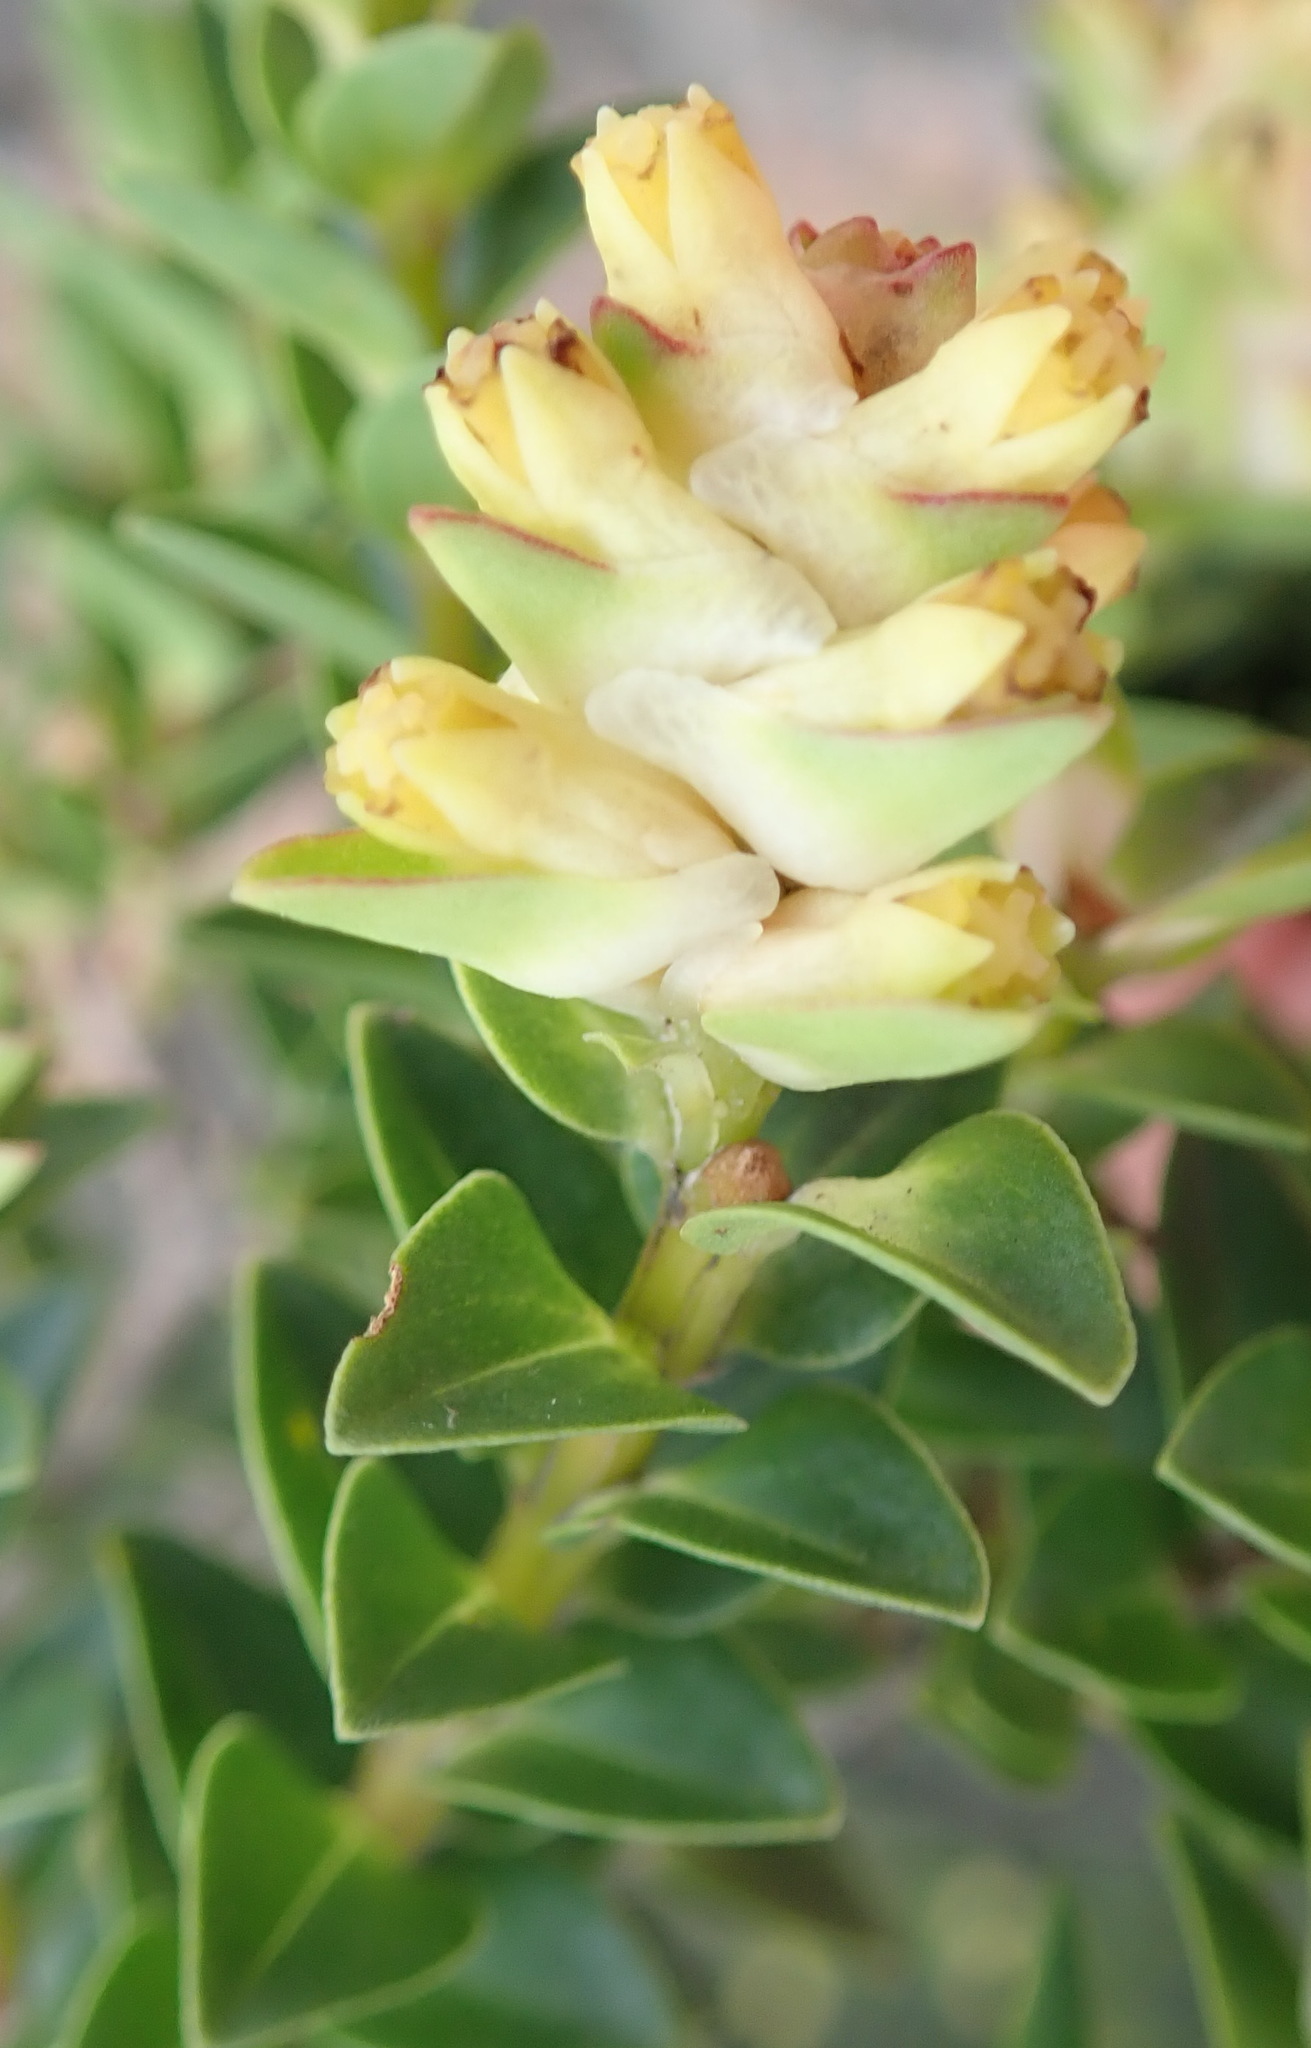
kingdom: Plantae
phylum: Tracheophyta
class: Magnoliopsida
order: Myrtales
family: Penaeaceae
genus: Penaea
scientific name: Penaea cneorum
